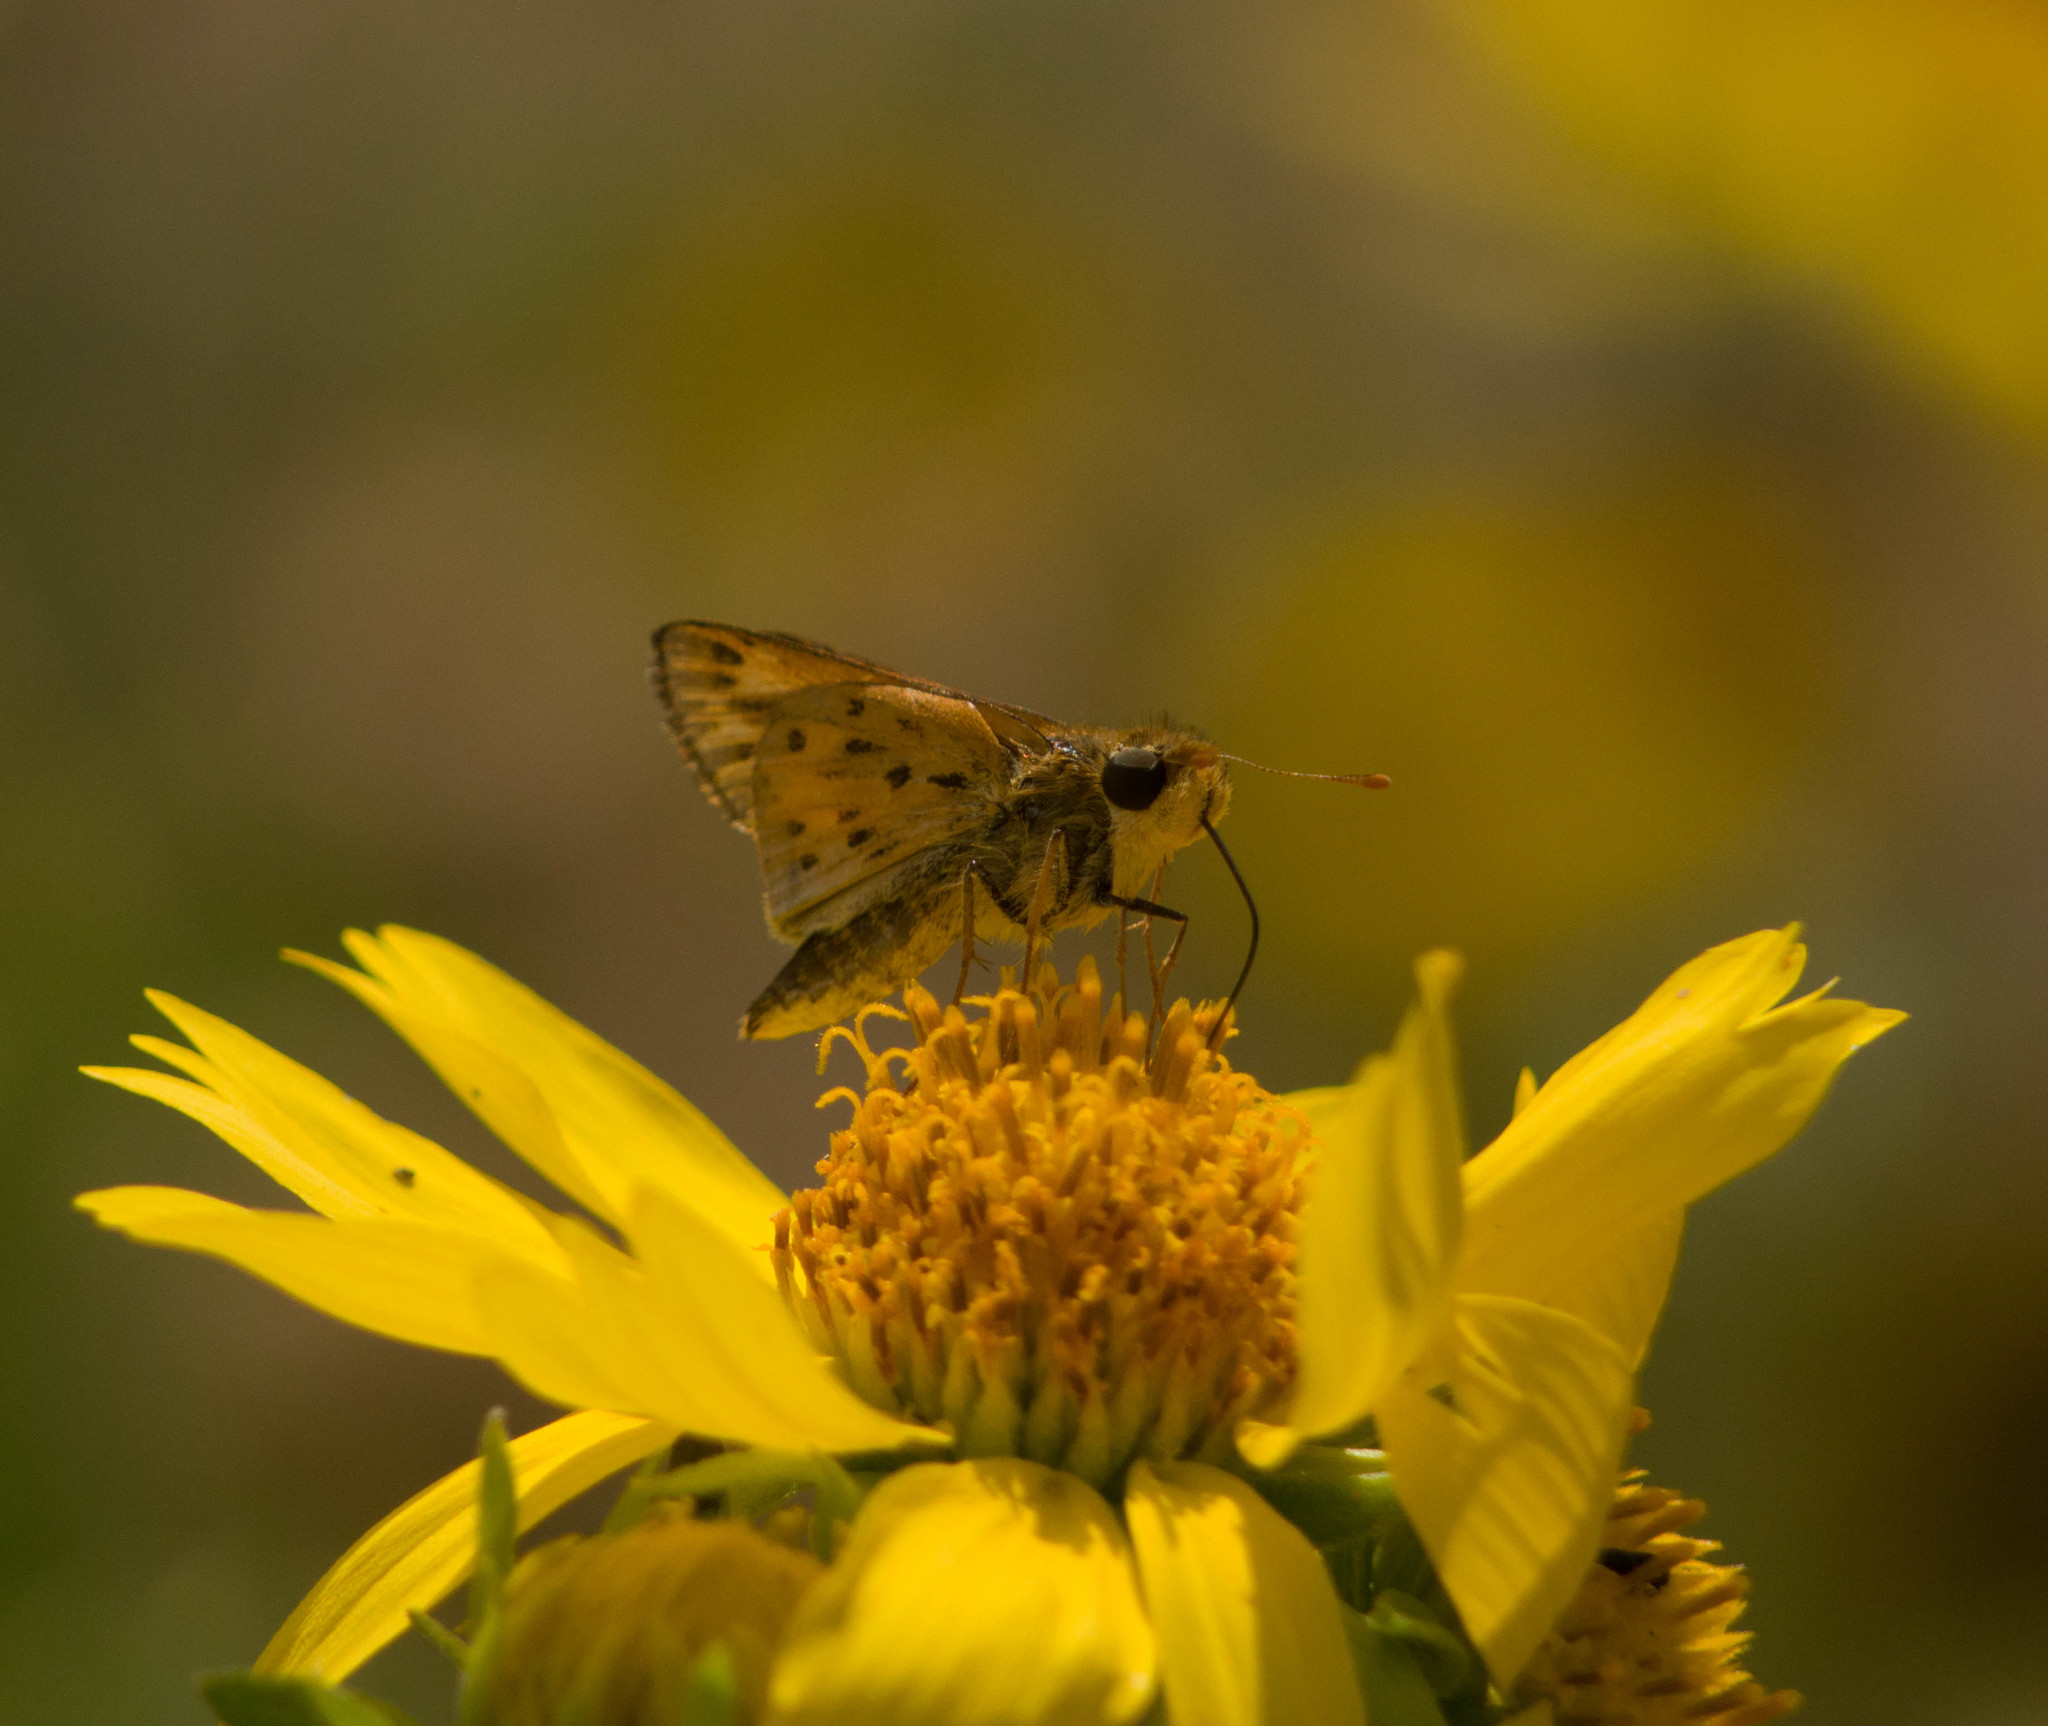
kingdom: Animalia
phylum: Arthropoda
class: Insecta
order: Lepidoptera
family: Hesperiidae
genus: Hylephila
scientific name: Hylephila phyleus
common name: Fiery skipper
